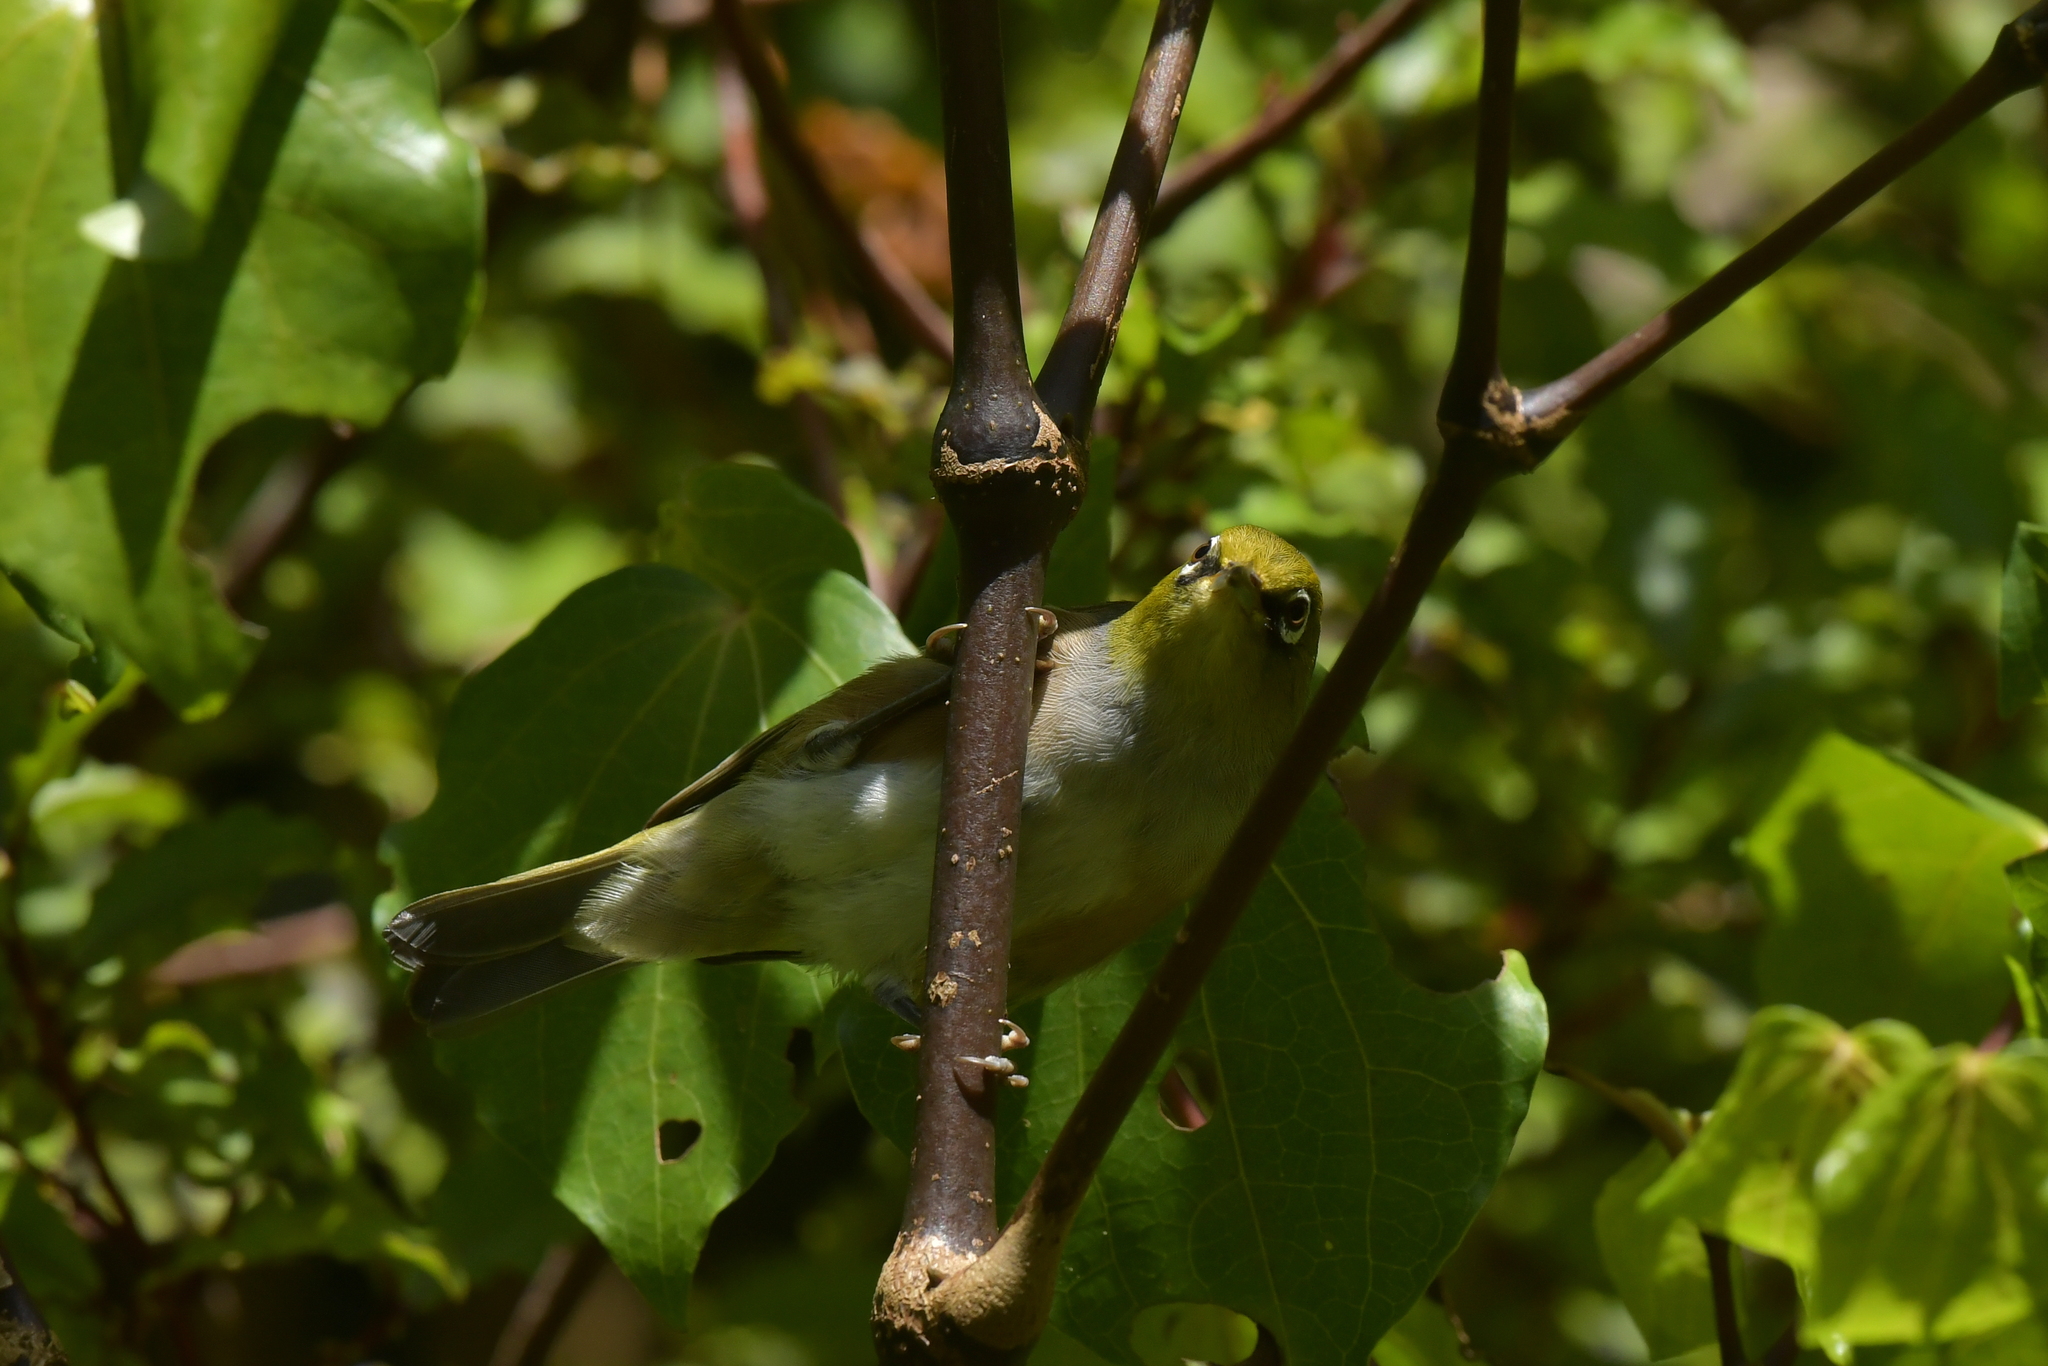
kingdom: Animalia
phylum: Chordata
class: Aves
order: Passeriformes
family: Zosteropidae
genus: Zosterops
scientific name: Zosterops lateralis
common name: Silvereye
